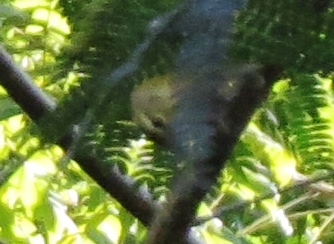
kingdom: Animalia
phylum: Chordata
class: Aves
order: Passeriformes
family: Parulidae
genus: Leiothlypis
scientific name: Leiothlypis peregrina
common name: Tennessee warbler
